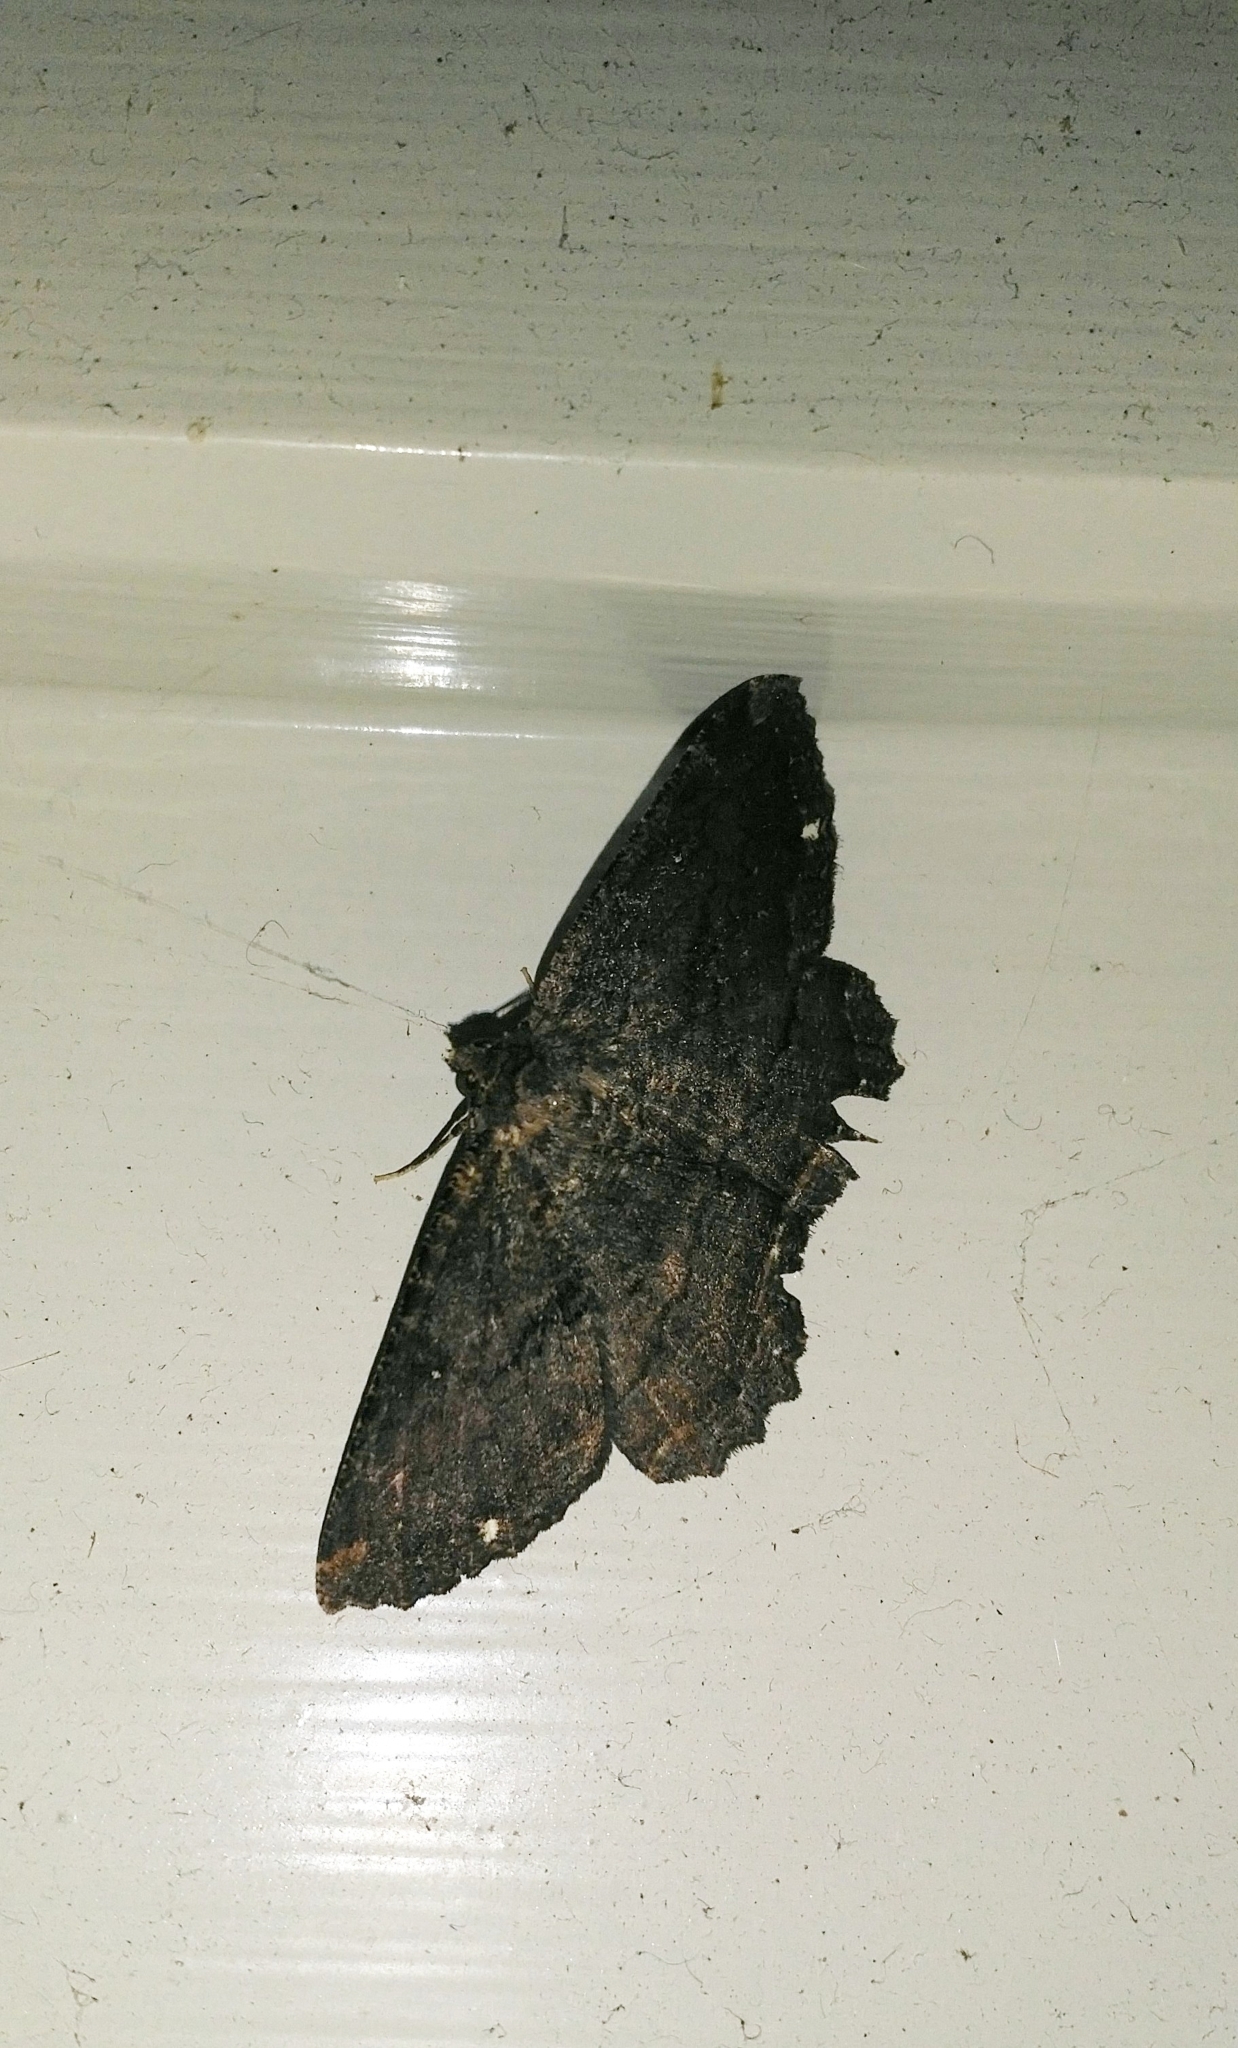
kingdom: Animalia
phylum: Arthropoda
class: Insecta
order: Lepidoptera
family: Geometridae
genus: Gellonia
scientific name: Gellonia dejectaria
